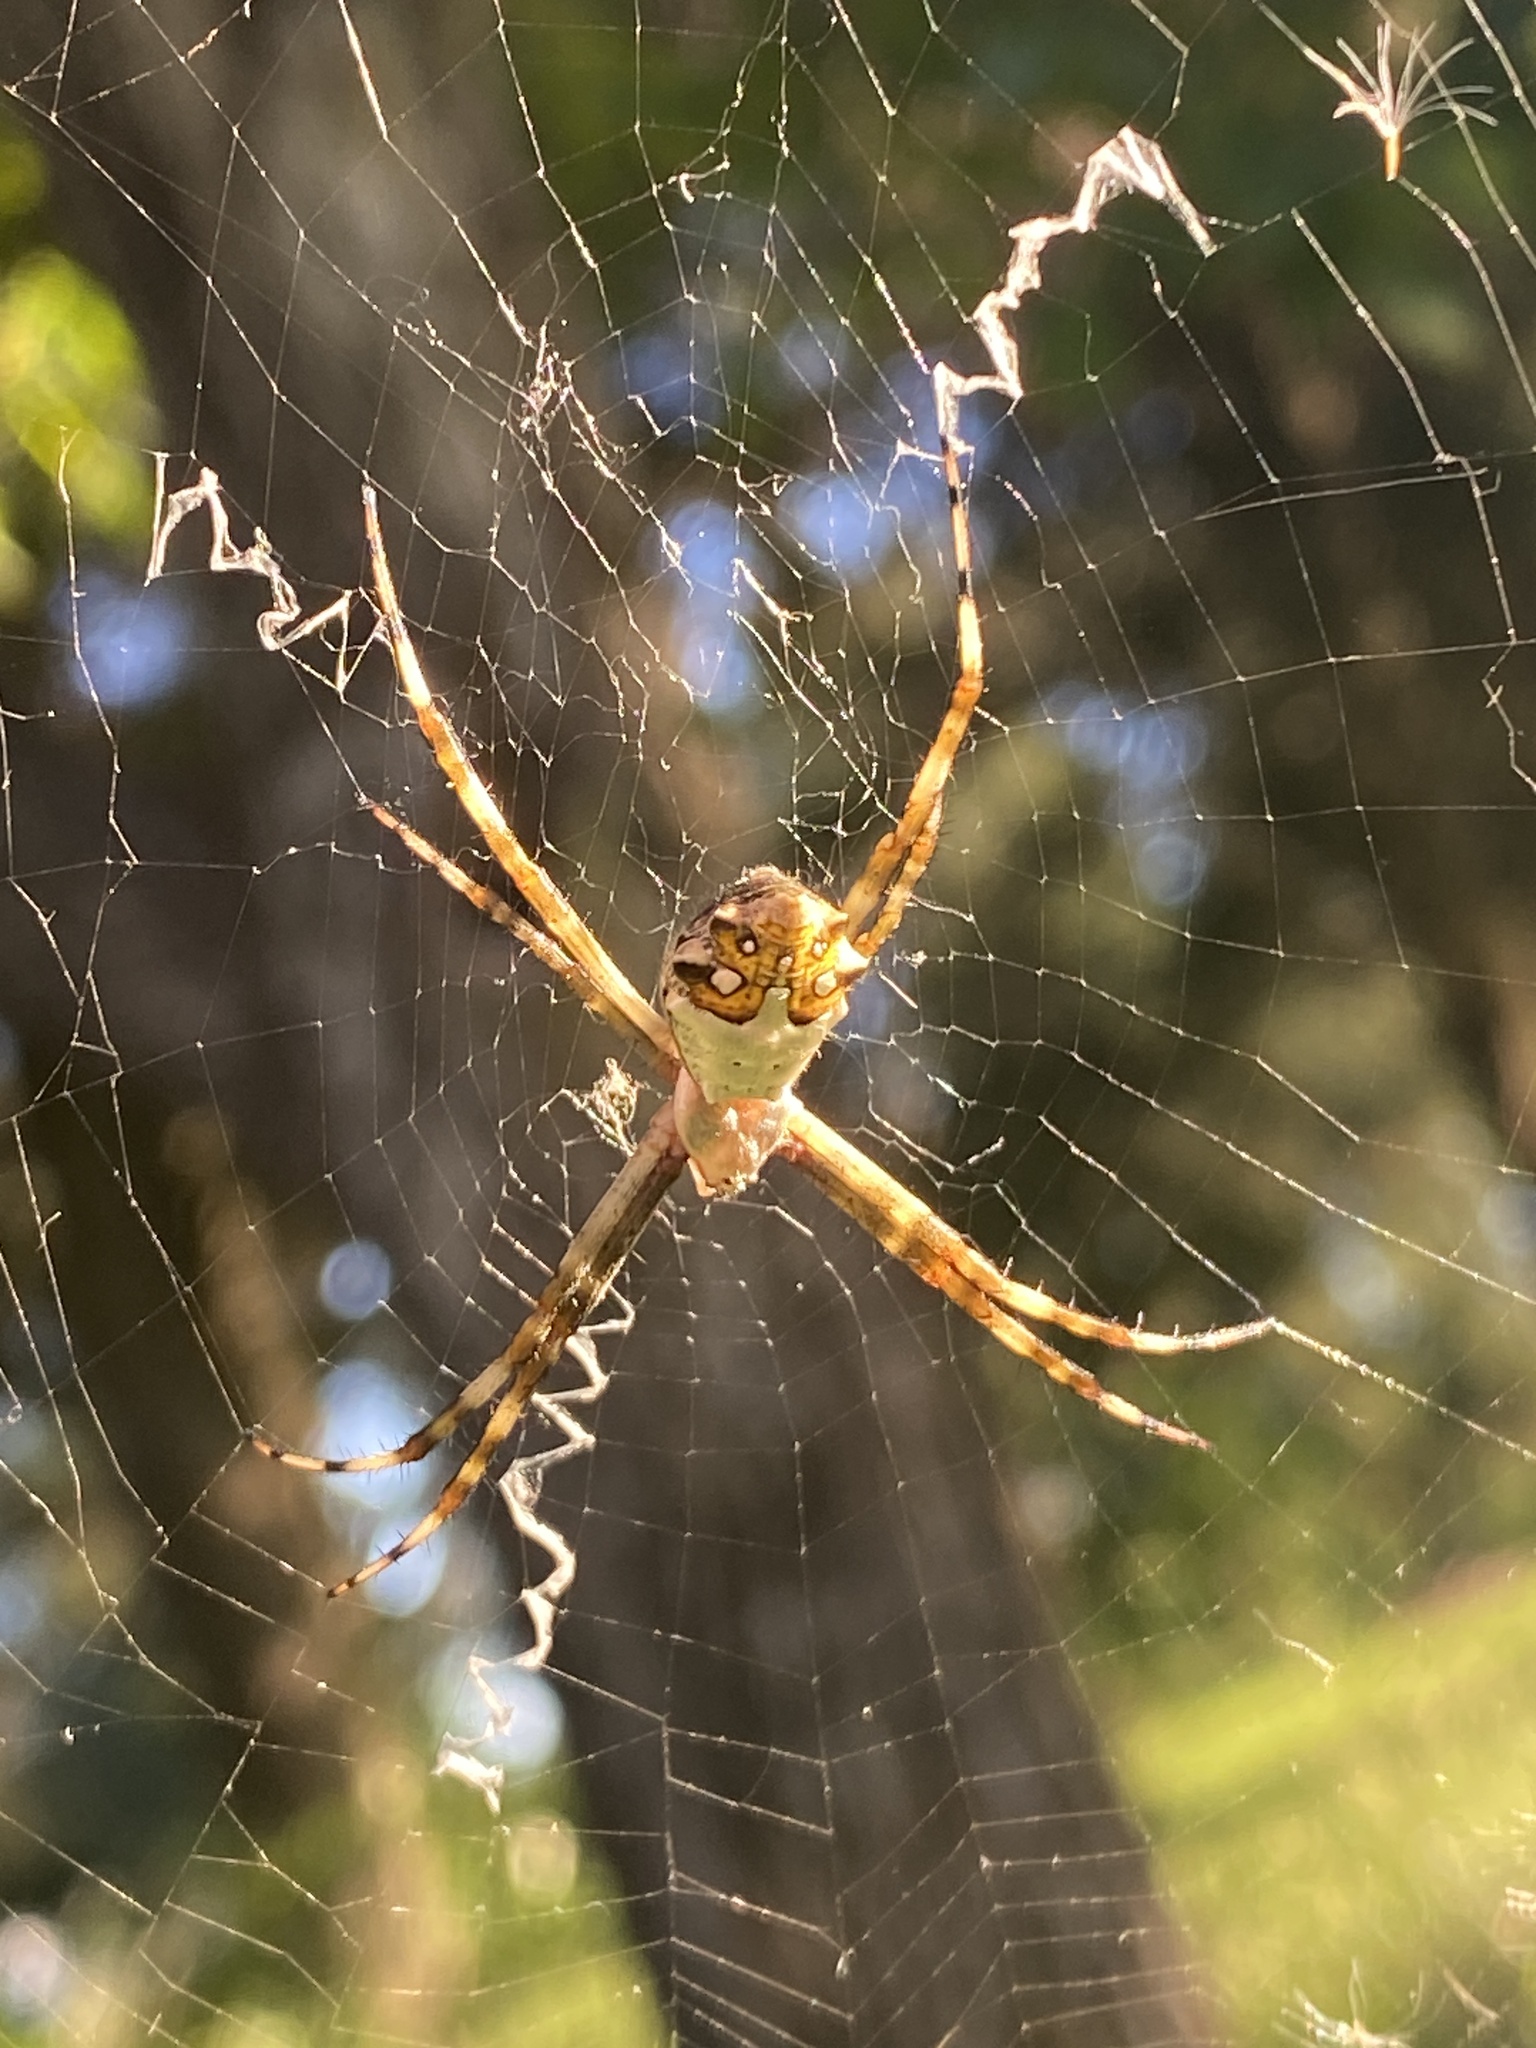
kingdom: Animalia
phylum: Arthropoda
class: Arachnida
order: Araneae
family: Araneidae
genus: Argiope
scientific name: Argiope argentata
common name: Orb weavers
